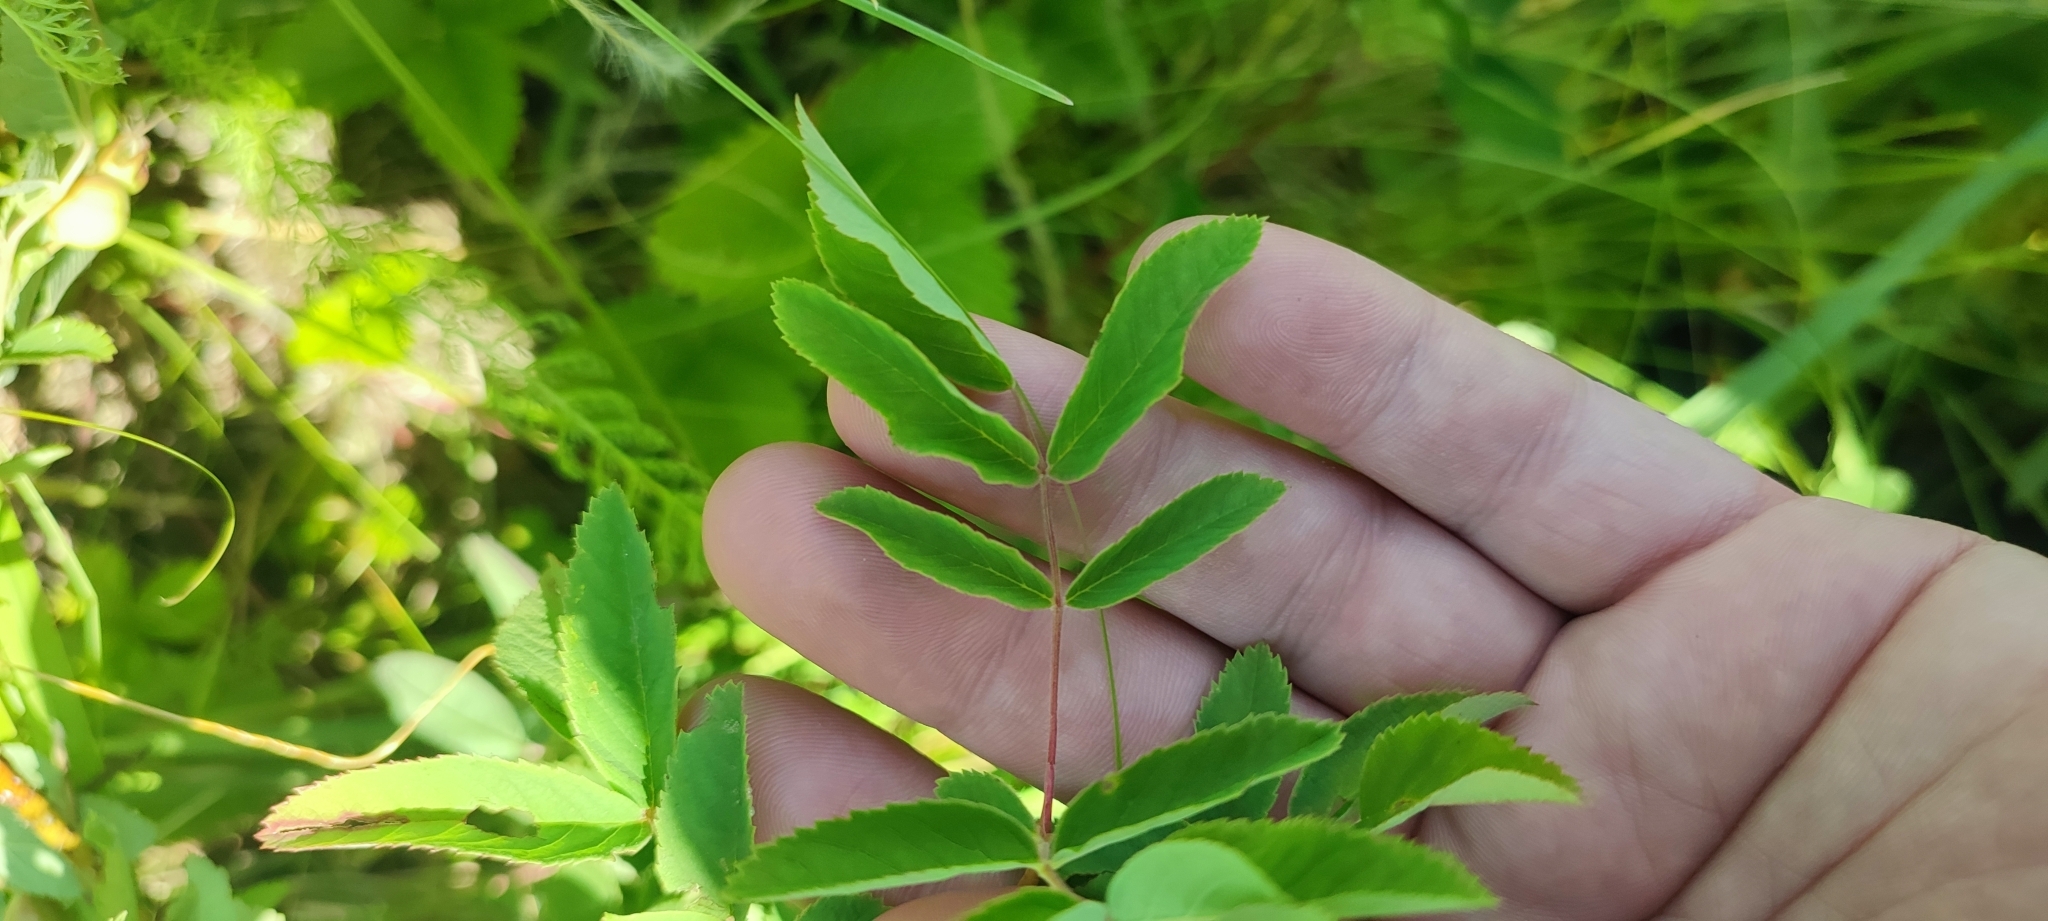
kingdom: Plantae
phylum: Tracheophyta
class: Magnoliopsida
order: Rosales
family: Rosaceae
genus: Rosa
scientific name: Rosa majalis
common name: Cinnamon rose
